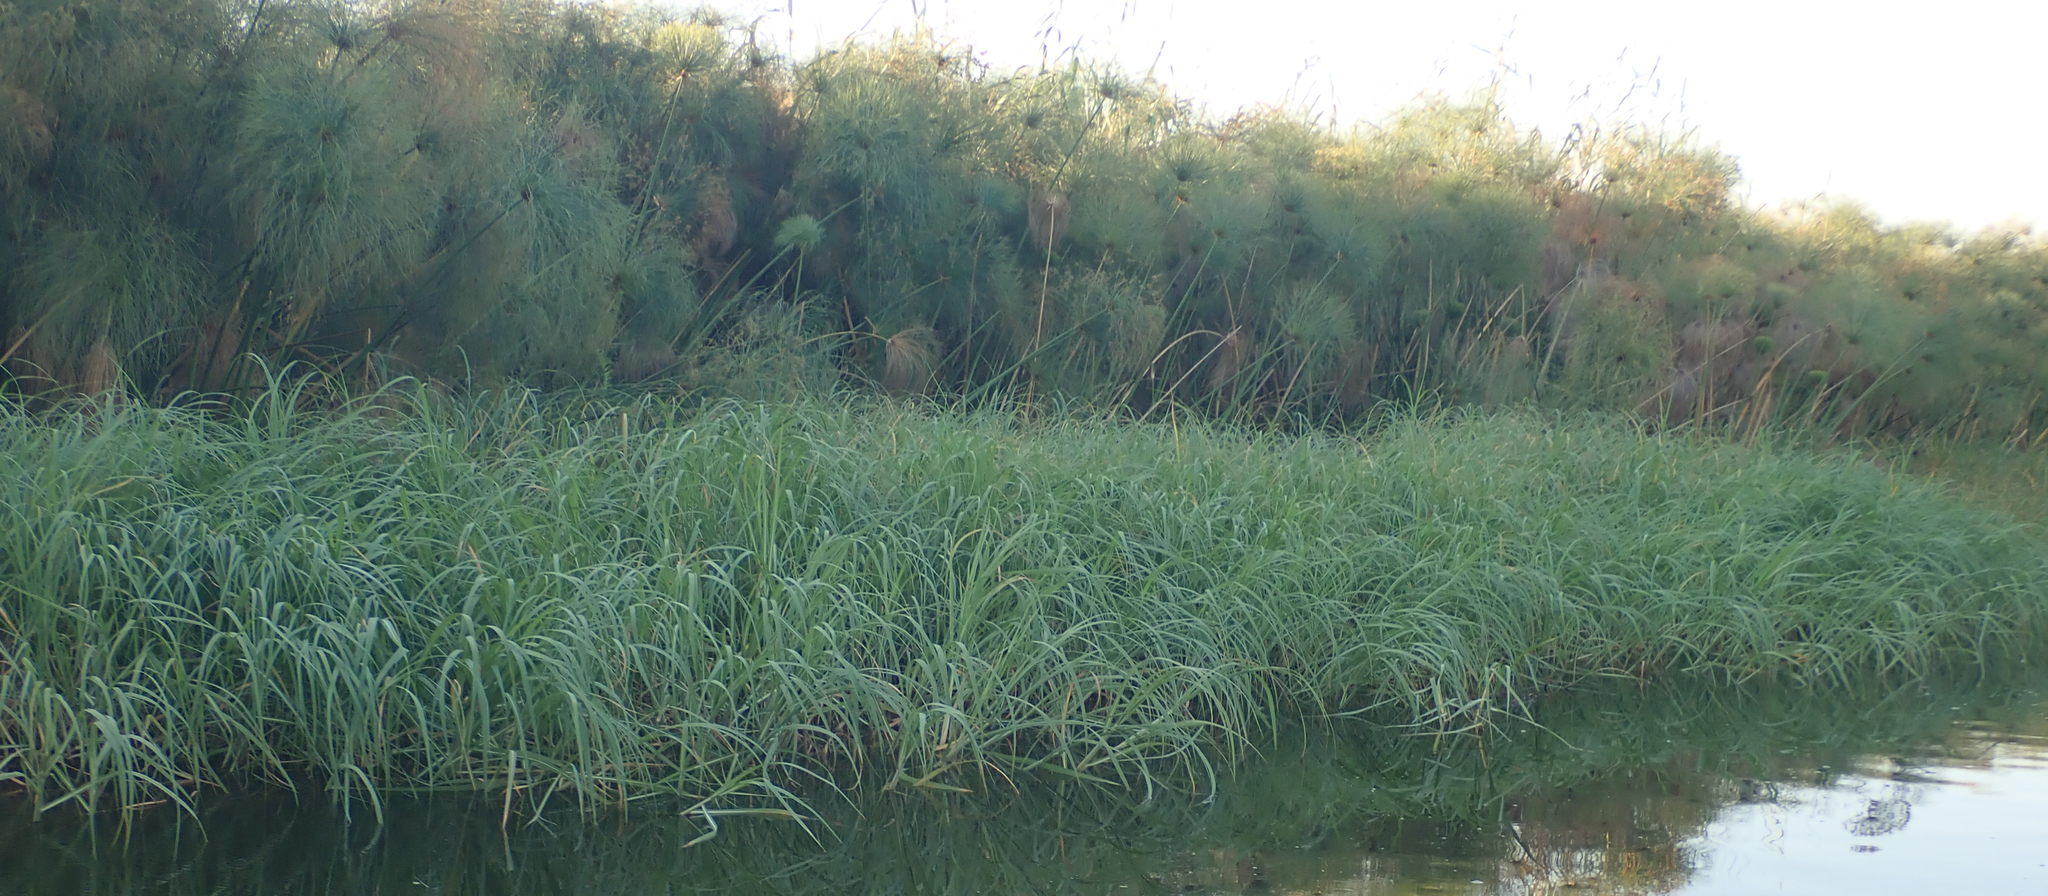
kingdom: Plantae
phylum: Tracheophyta
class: Liliopsida
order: Poales
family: Cyperaceae
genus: Cyperus
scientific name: Cyperus papyrus
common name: Papyrus
